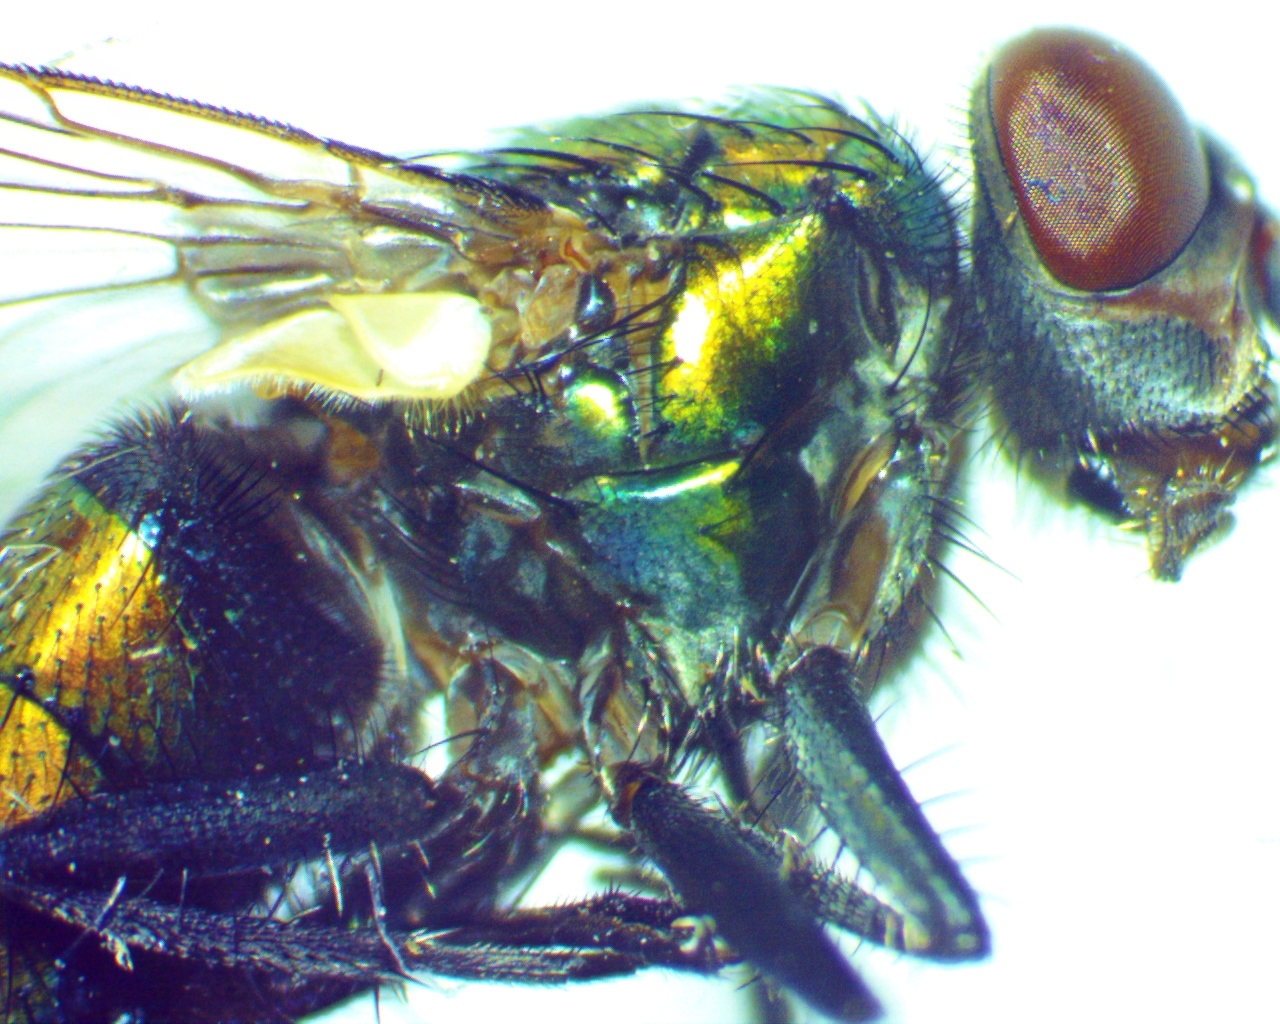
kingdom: Animalia
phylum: Arthropoda
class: Insecta
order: Diptera
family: Calliphoridae
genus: Lucilia
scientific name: Lucilia cuprina
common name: Sheep blow fly
